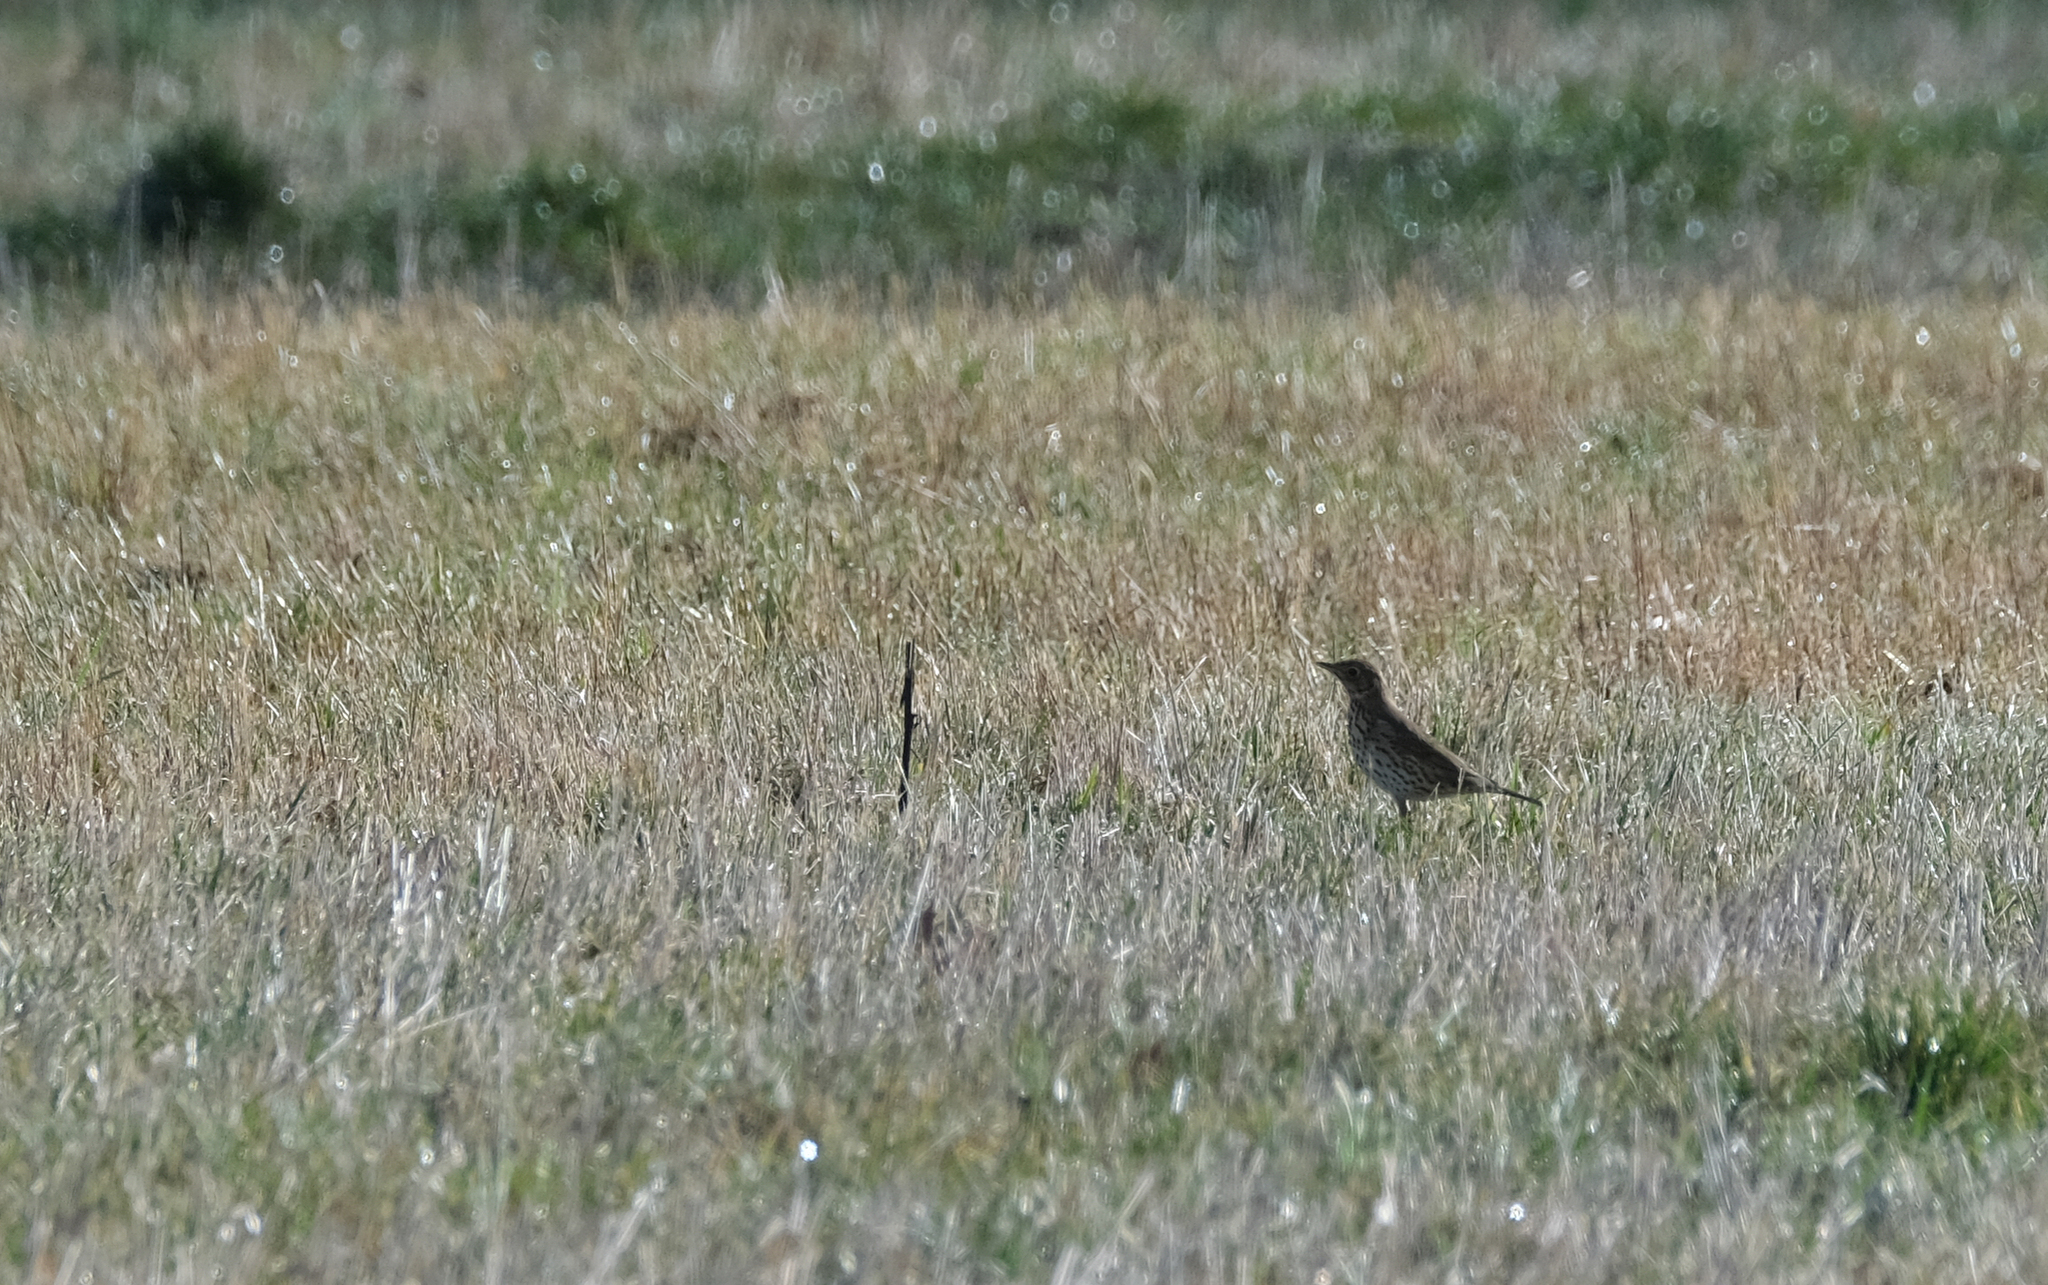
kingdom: Animalia
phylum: Chordata
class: Aves
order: Passeriformes
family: Turdidae
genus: Turdus
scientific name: Turdus philomelos
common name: Song thrush
